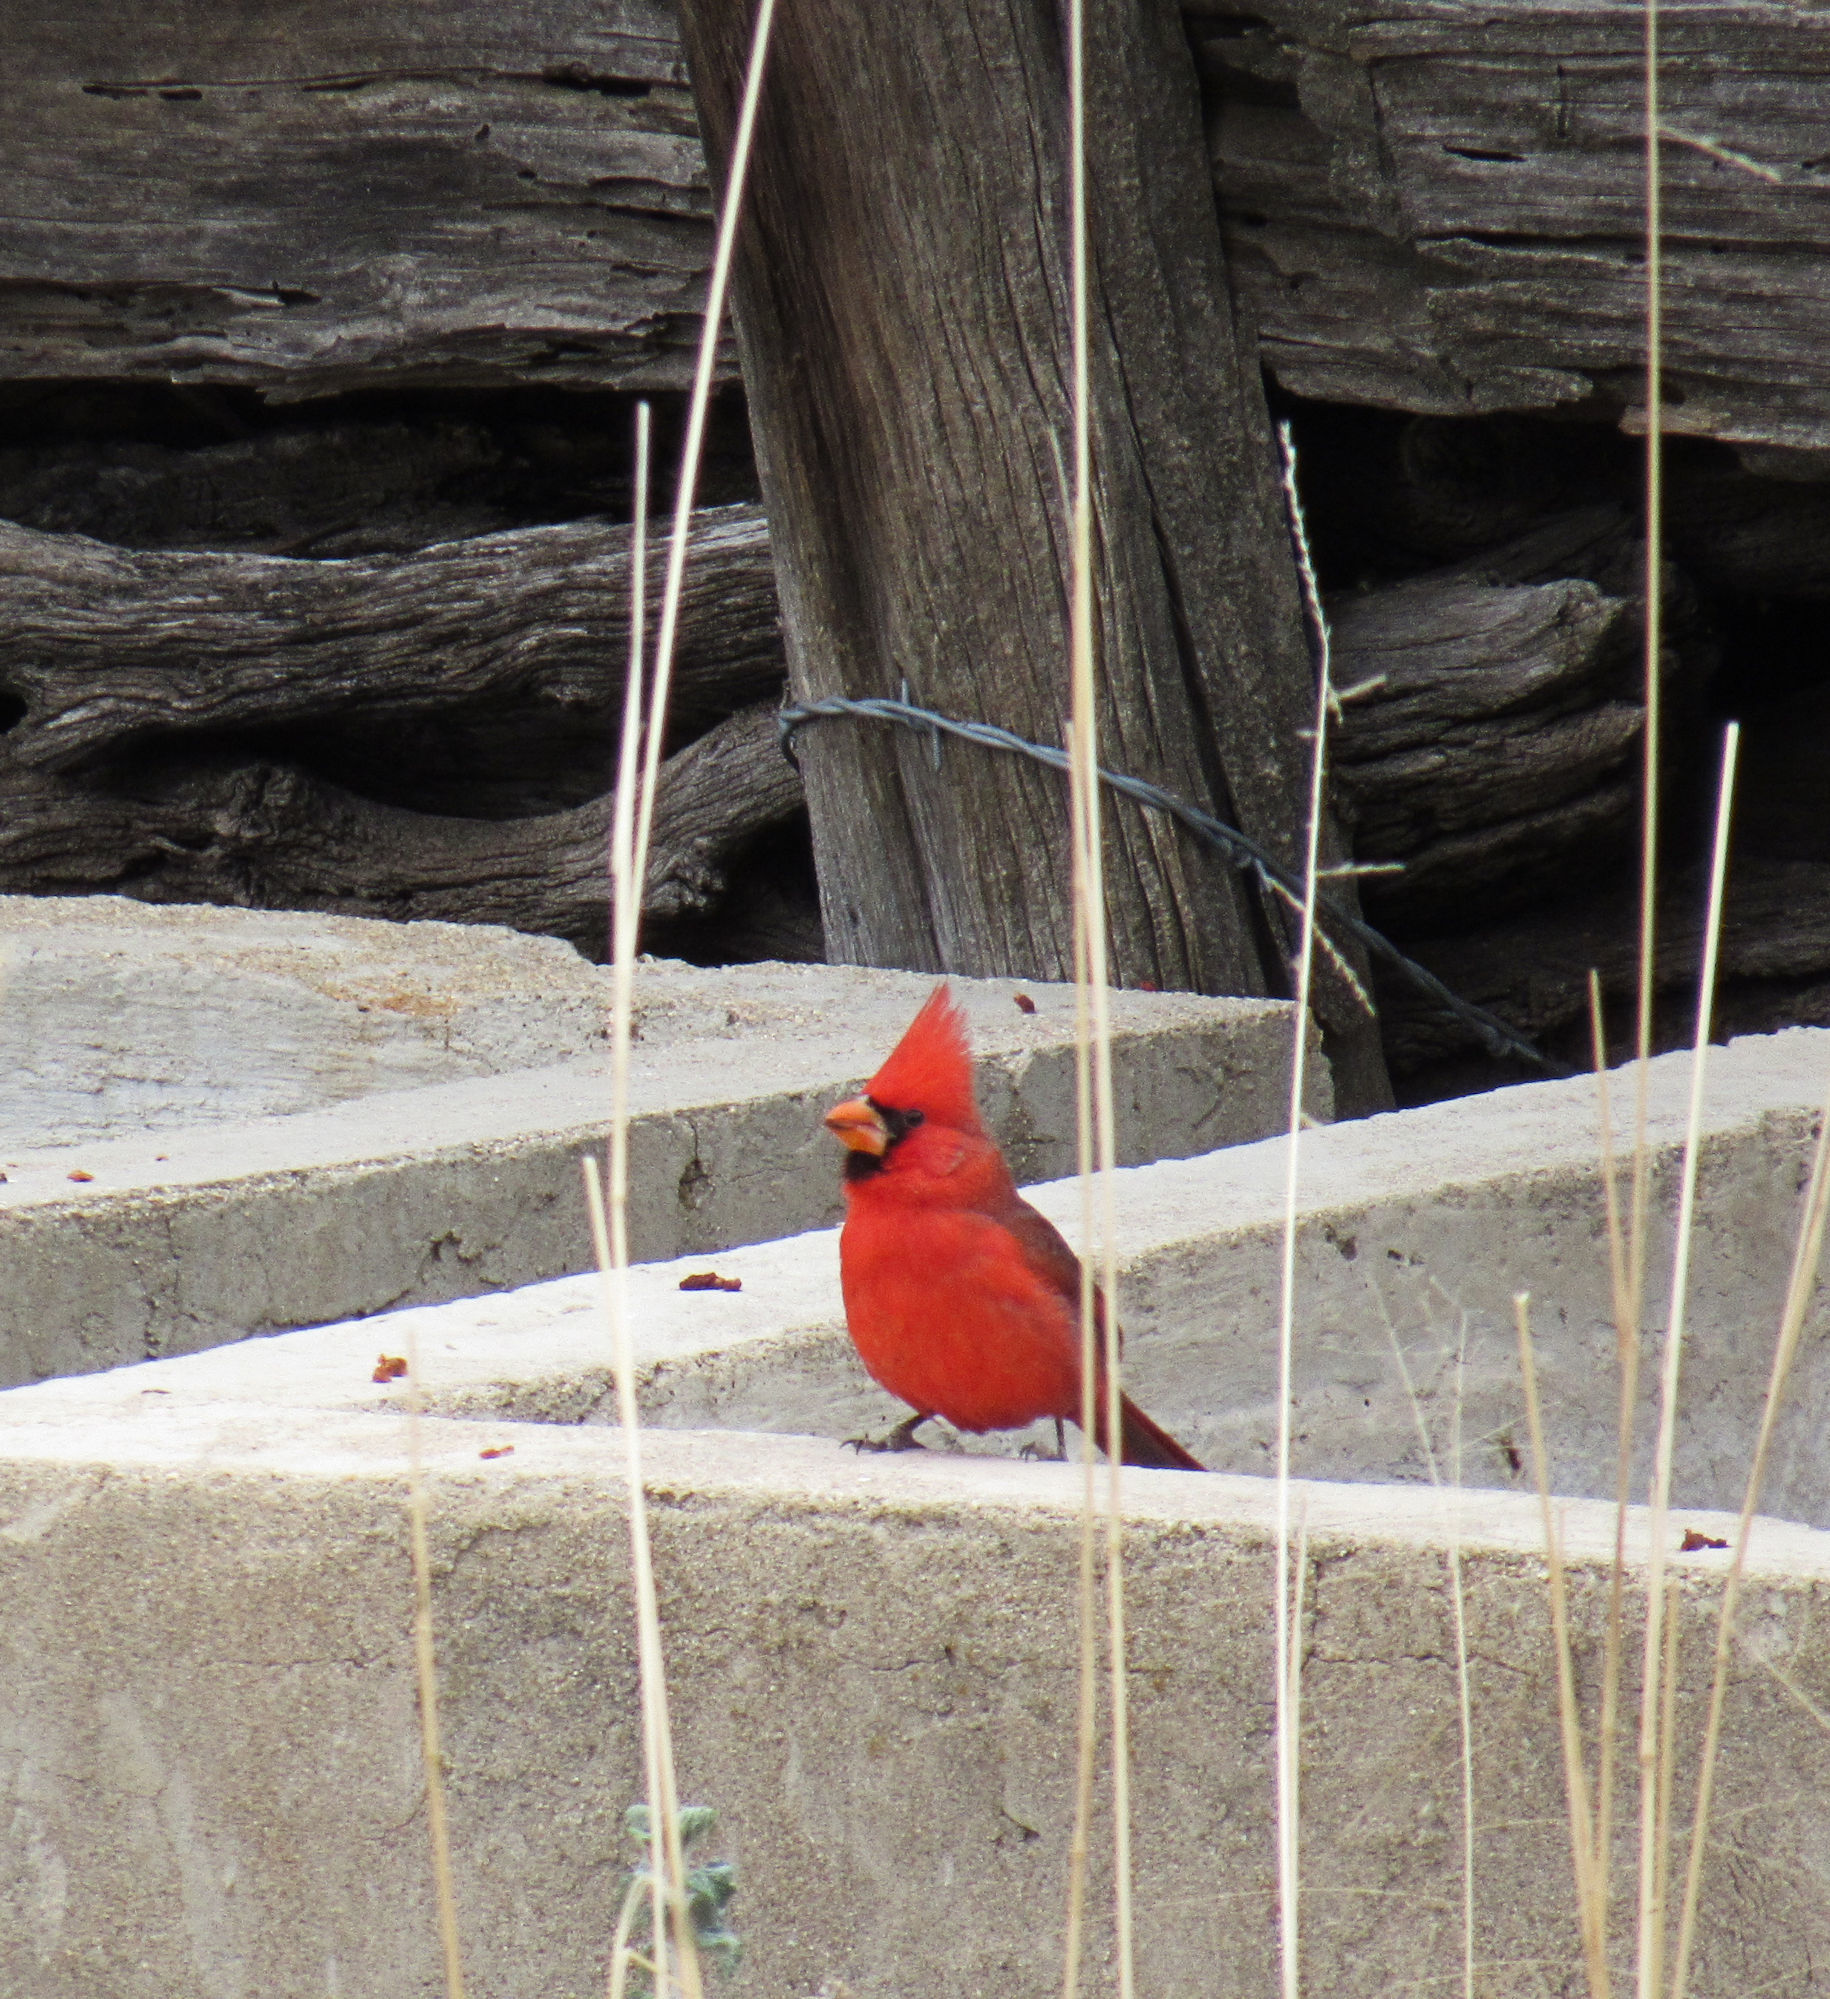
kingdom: Animalia
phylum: Chordata
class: Aves
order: Passeriformes
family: Cardinalidae
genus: Cardinalis
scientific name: Cardinalis cardinalis
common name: Northern cardinal
